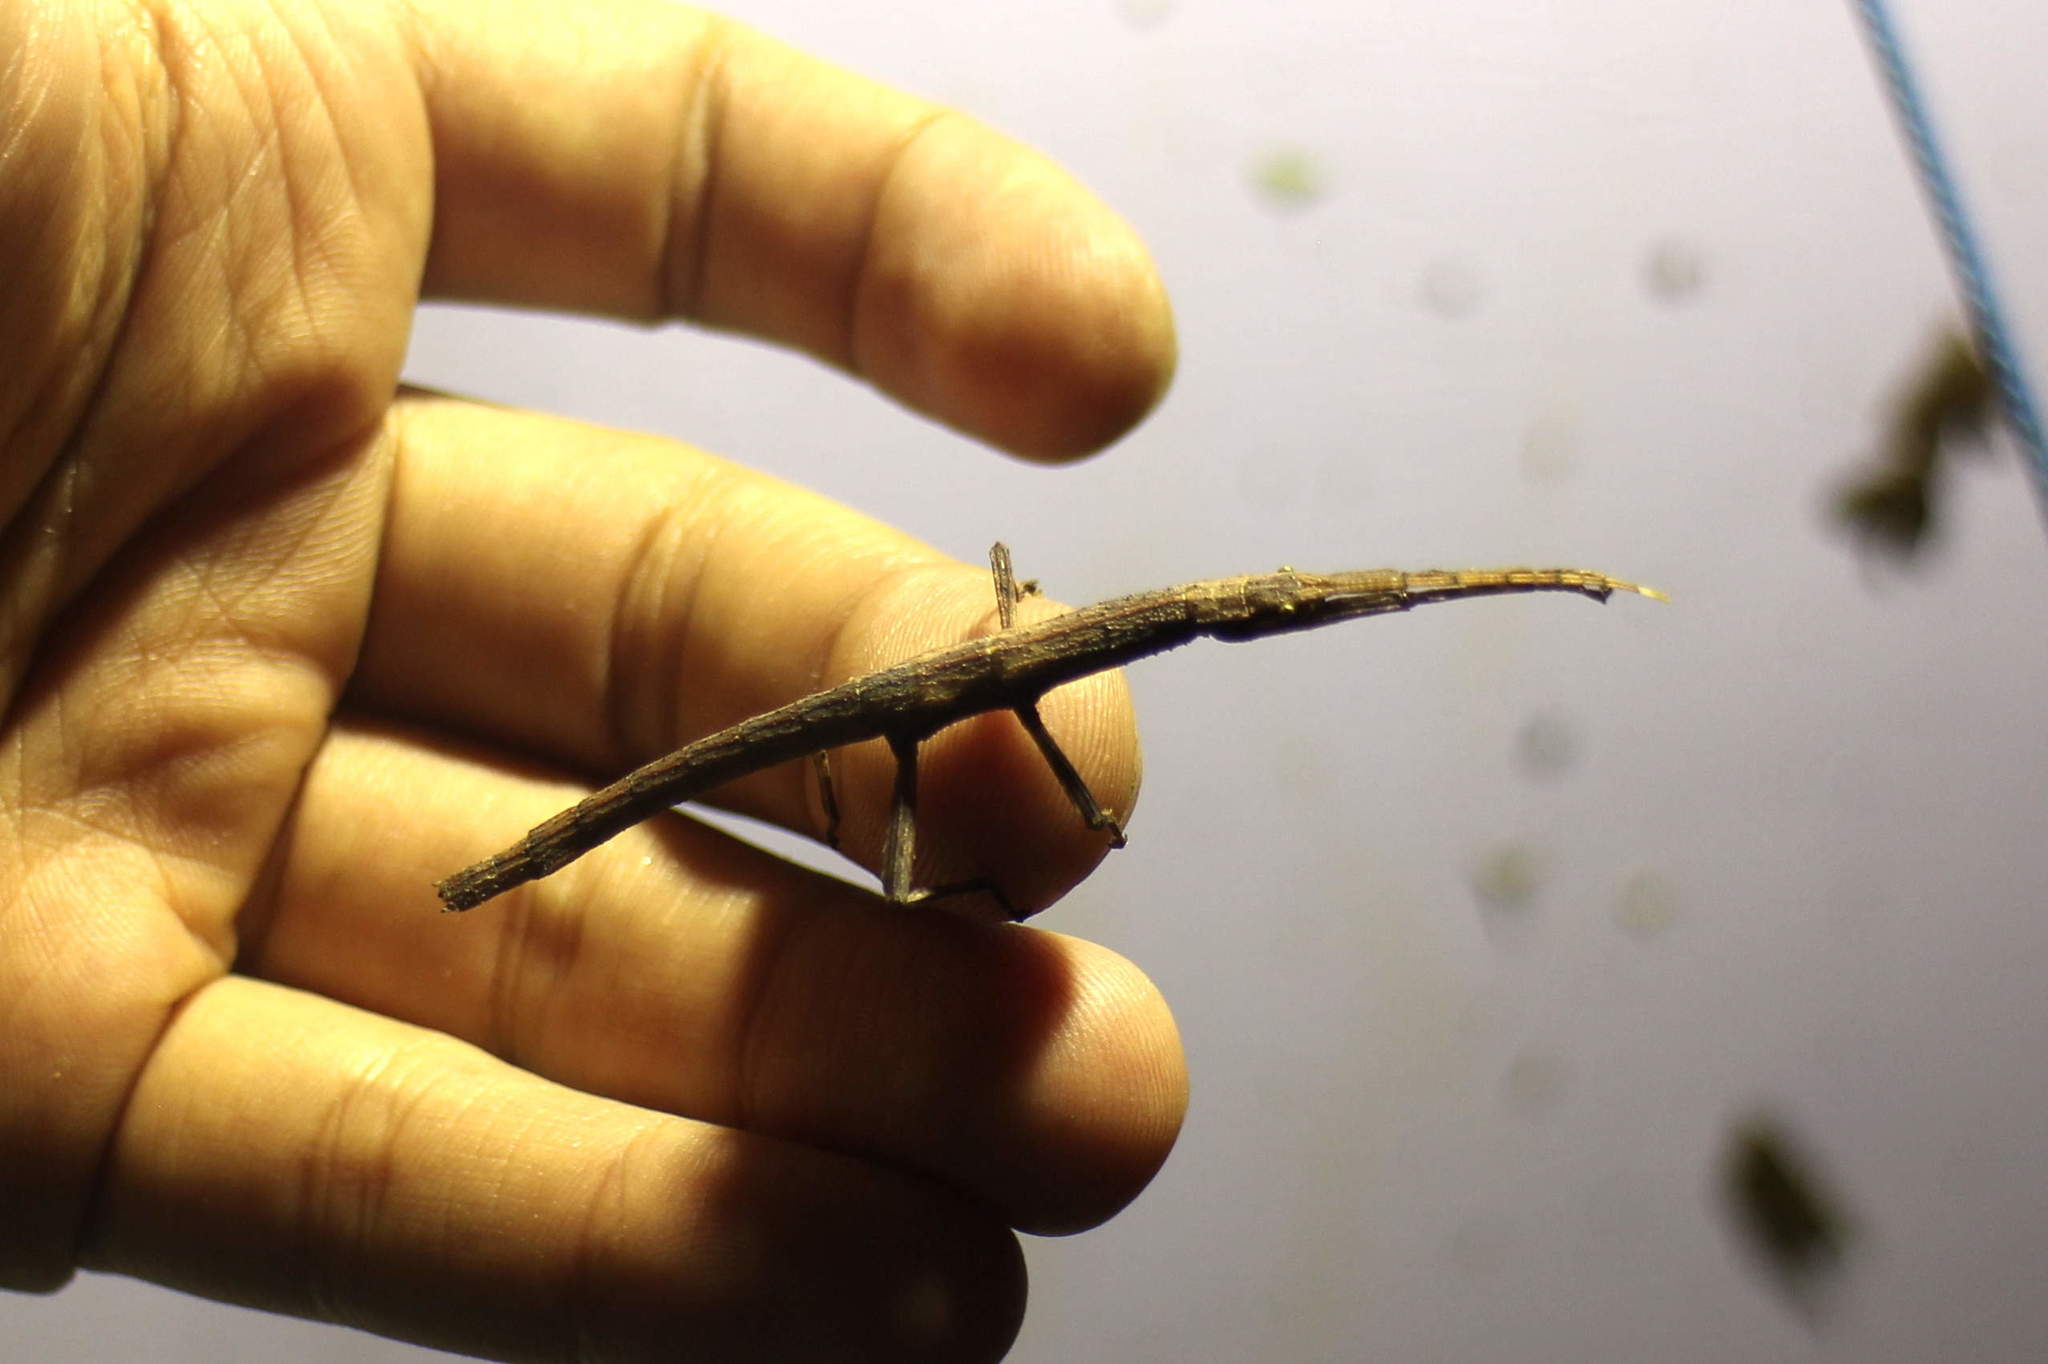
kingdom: Animalia
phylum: Arthropoda
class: Insecta
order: Phasmida
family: Phasmatidae
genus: Lamponius
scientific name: Lamponius guerini
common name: Guadeloupe stick insect
